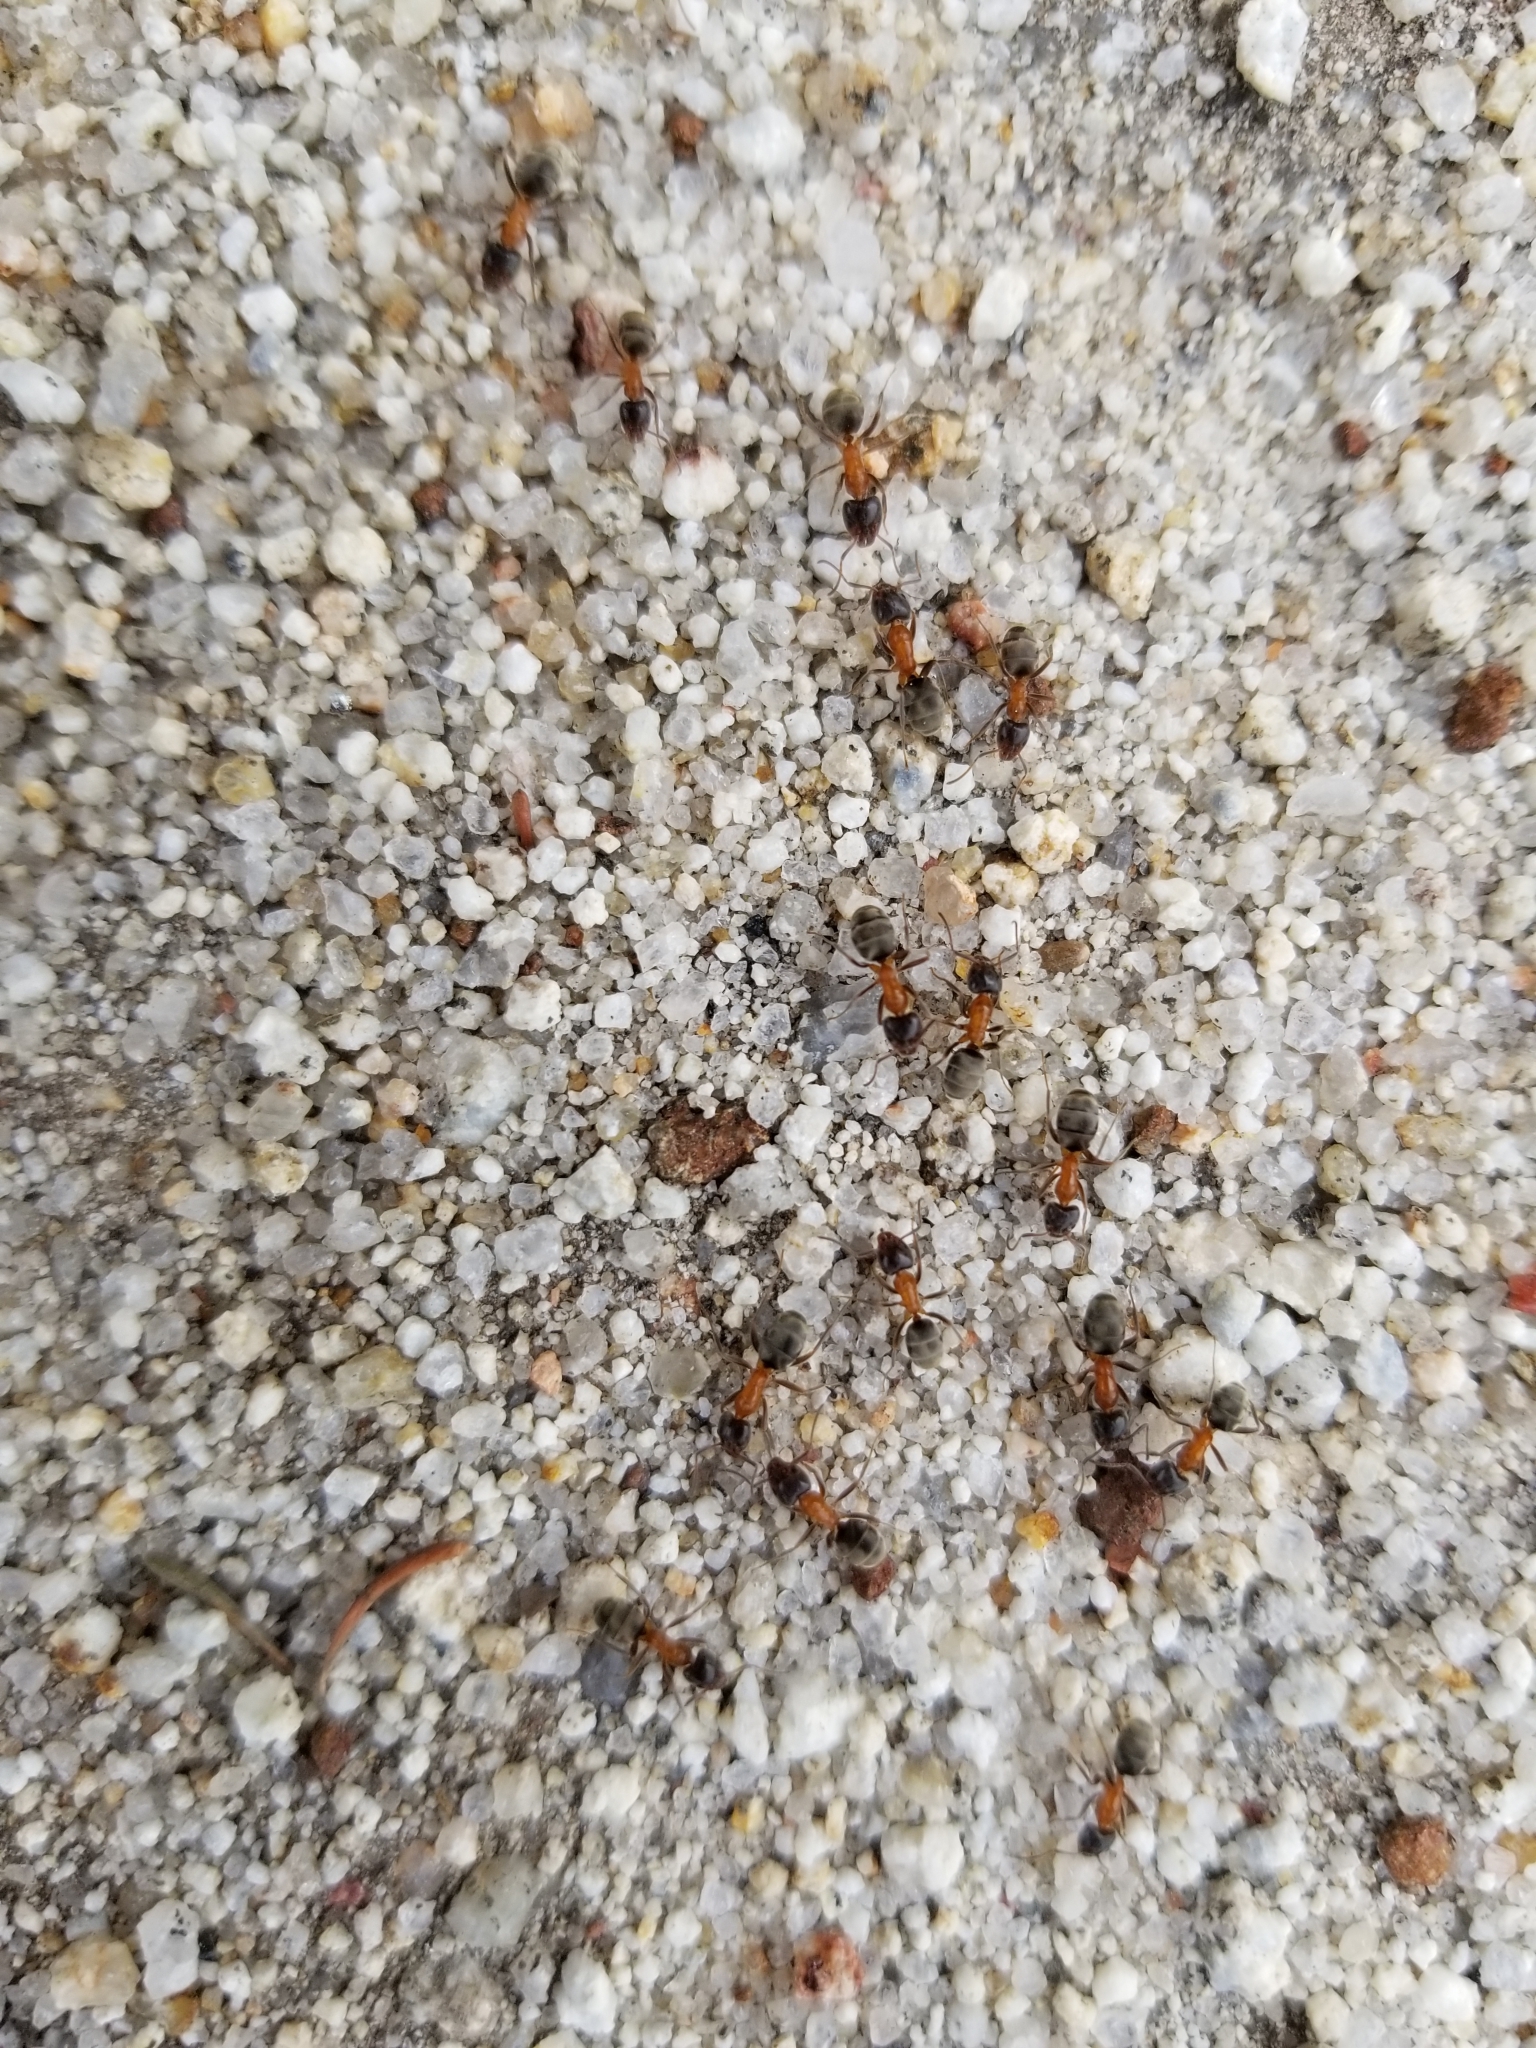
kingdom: Animalia
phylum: Arthropoda
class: Insecta
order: Hymenoptera
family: Formicidae
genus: Liometopum
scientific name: Liometopum occidentale
